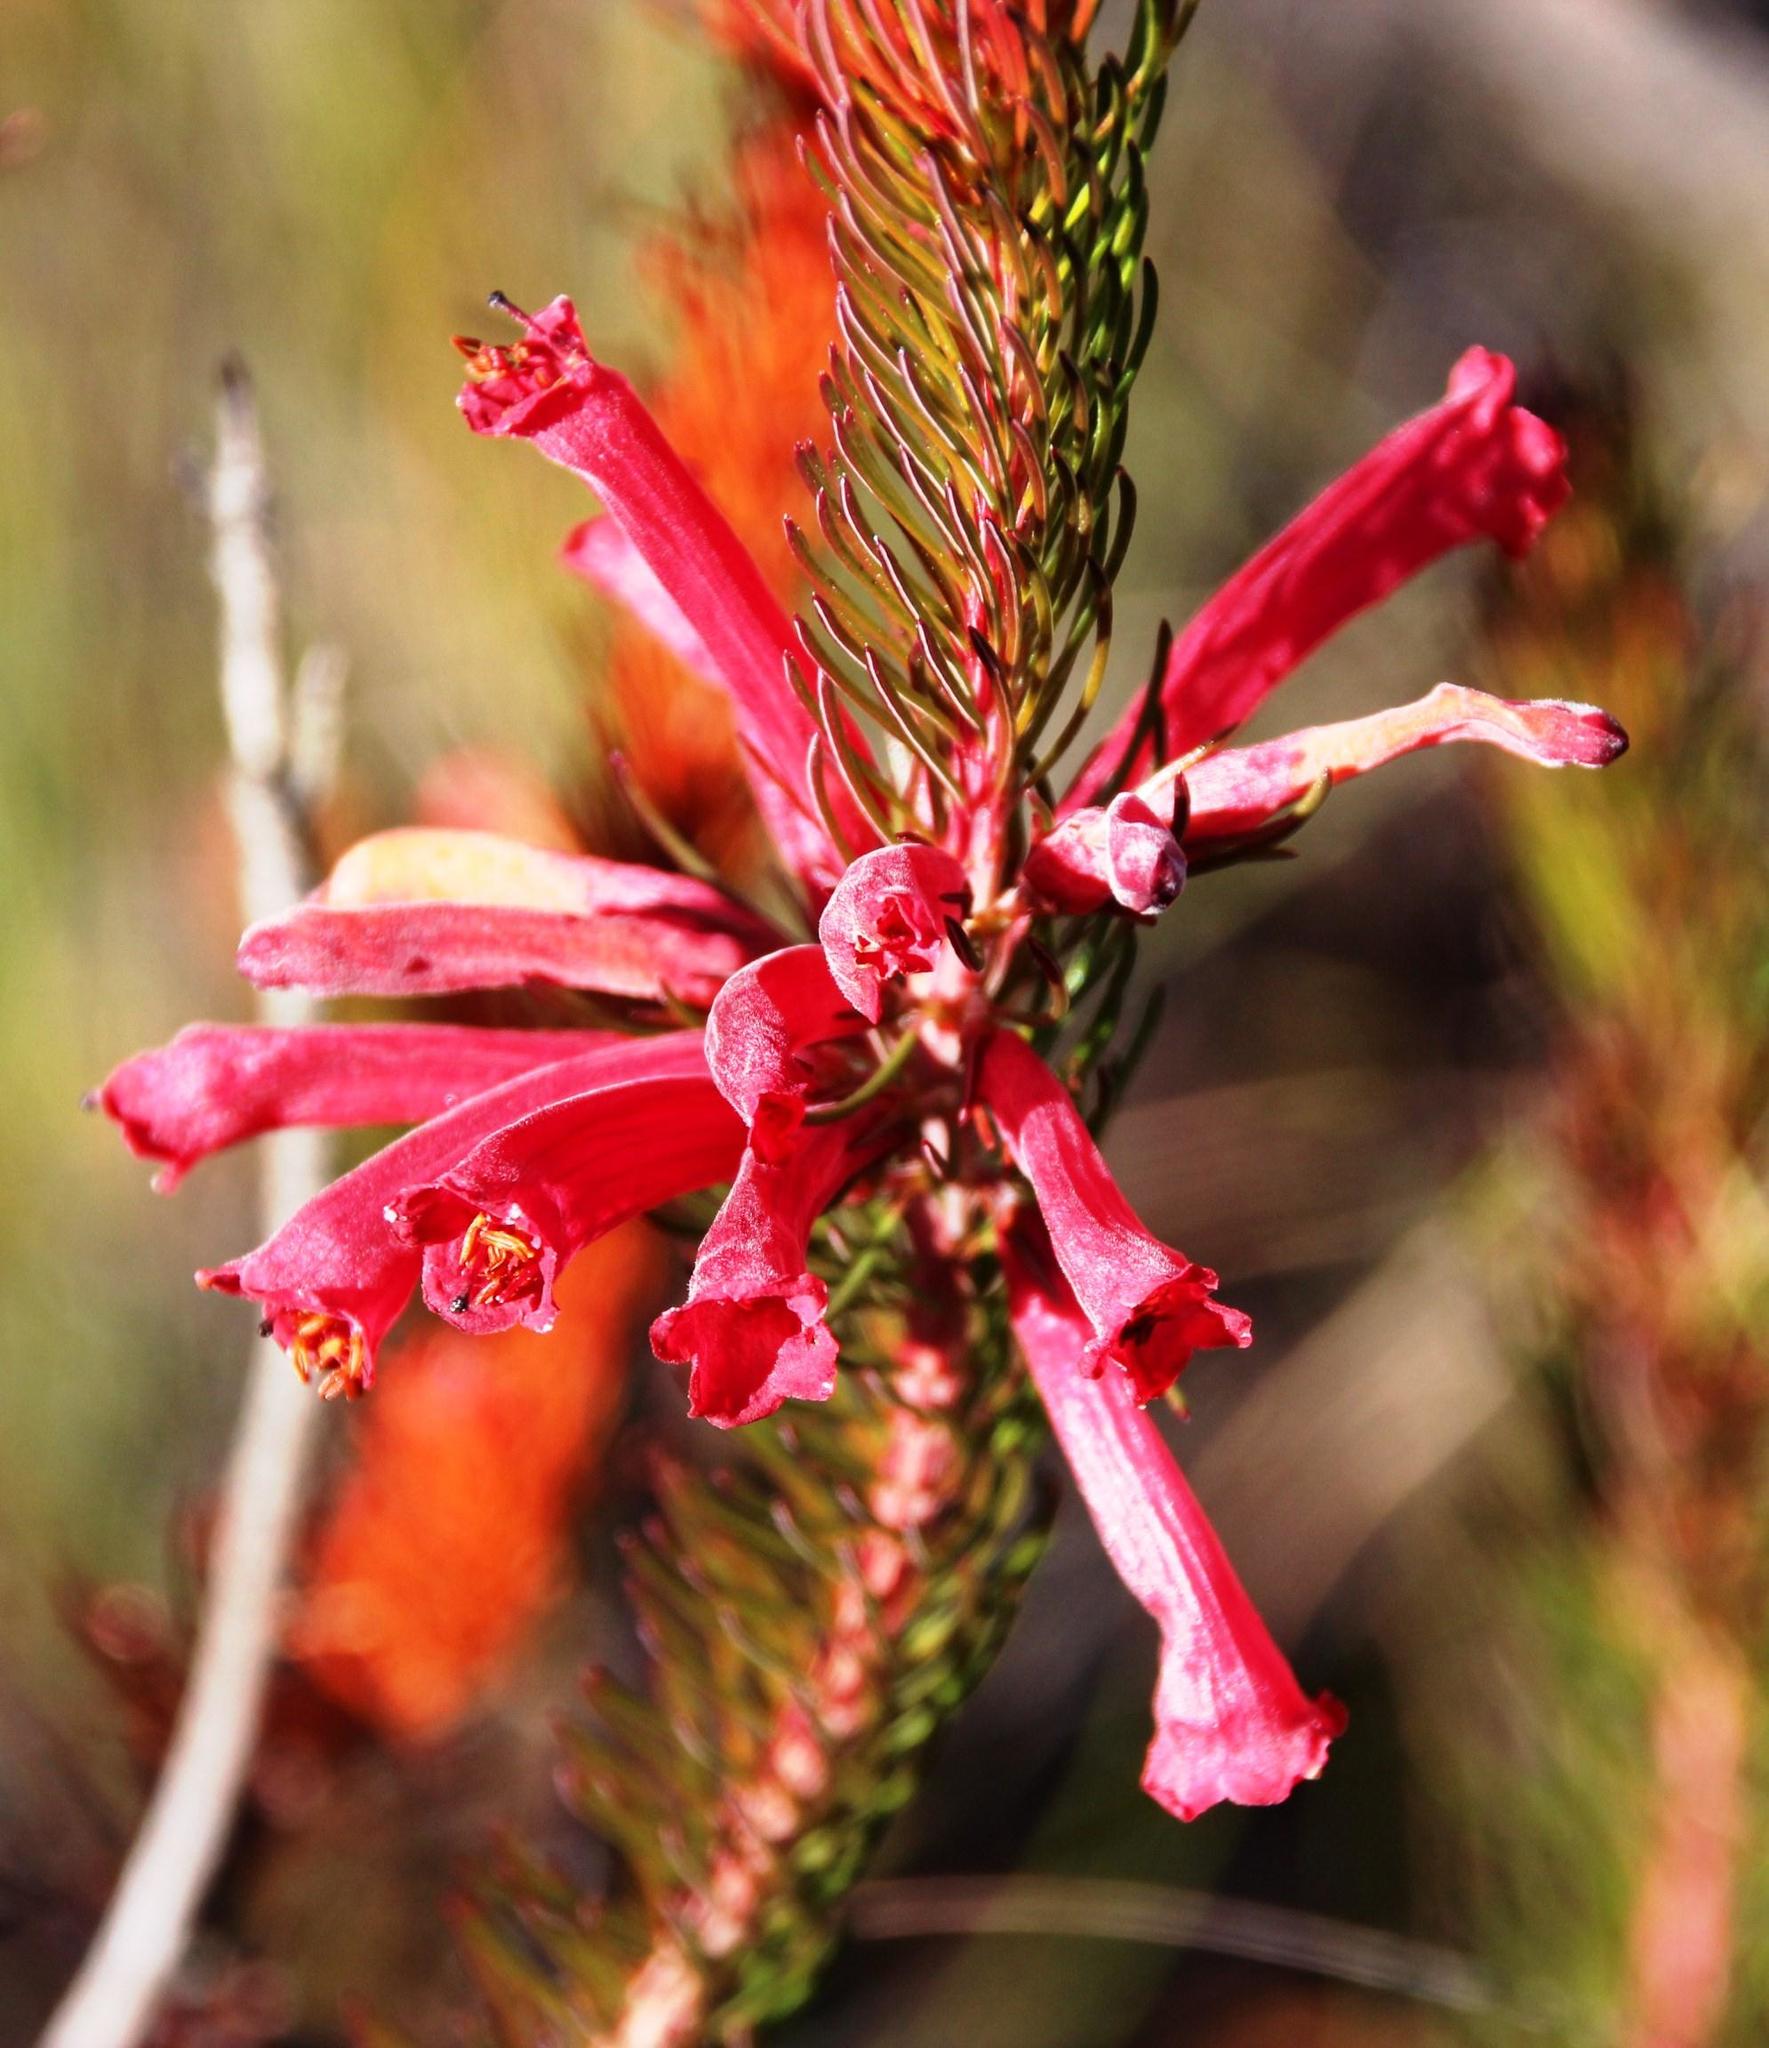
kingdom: Plantae
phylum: Tracheophyta
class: Magnoliopsida
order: Ericales
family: Ericaceae
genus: Erica
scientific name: Erica vestita
